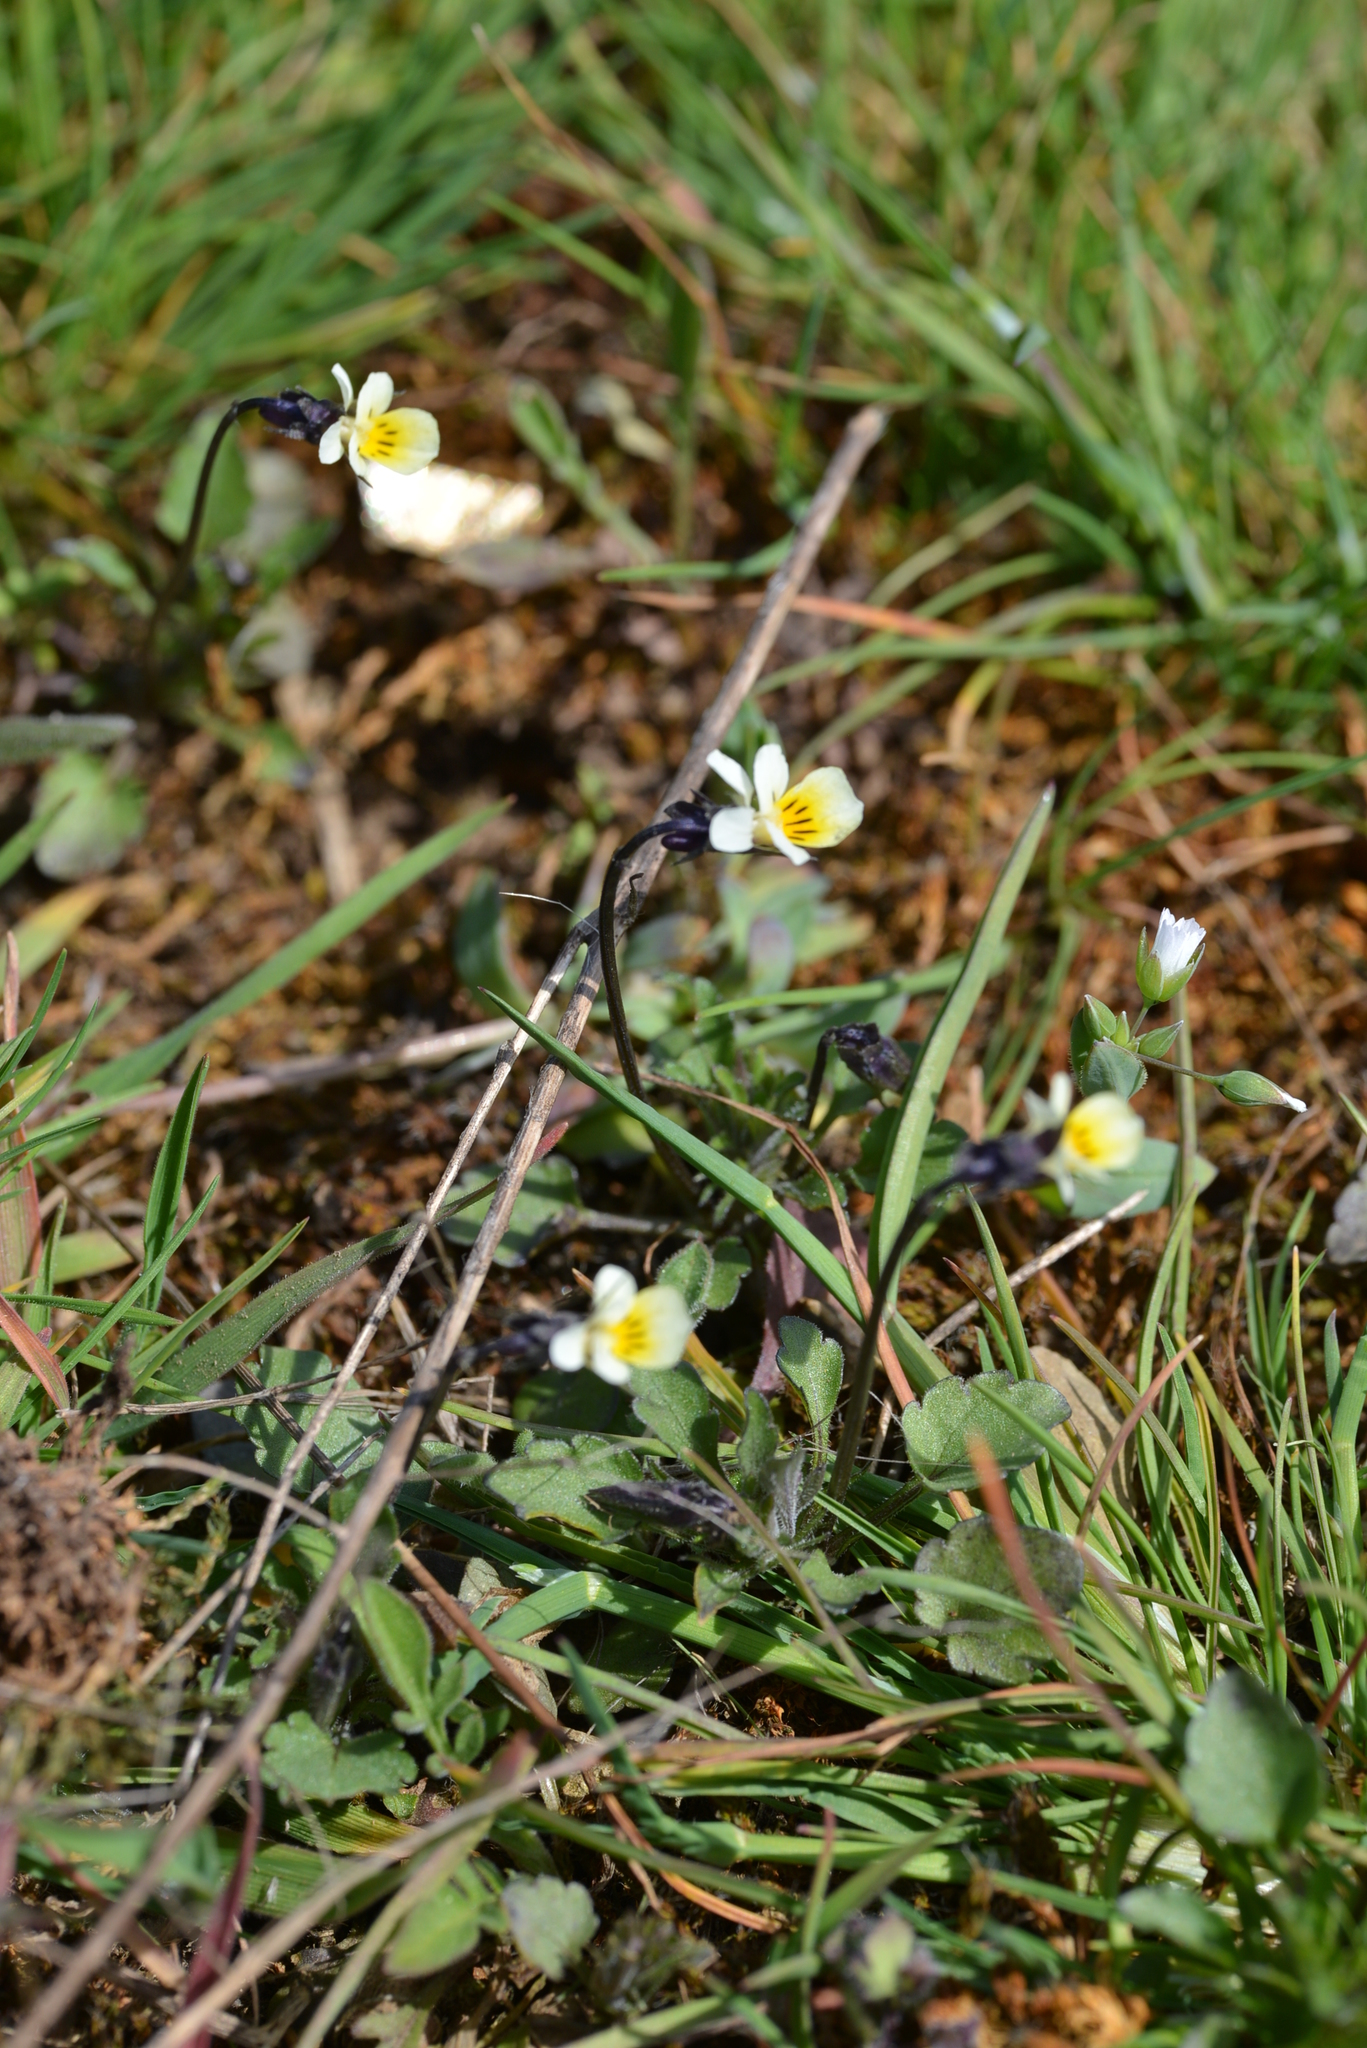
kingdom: Plantae
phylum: Tracheophyta
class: Magnoliopsida
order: Malpighiales
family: Violaceae
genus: Viola
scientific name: Viola arvensis
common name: Field pansy
